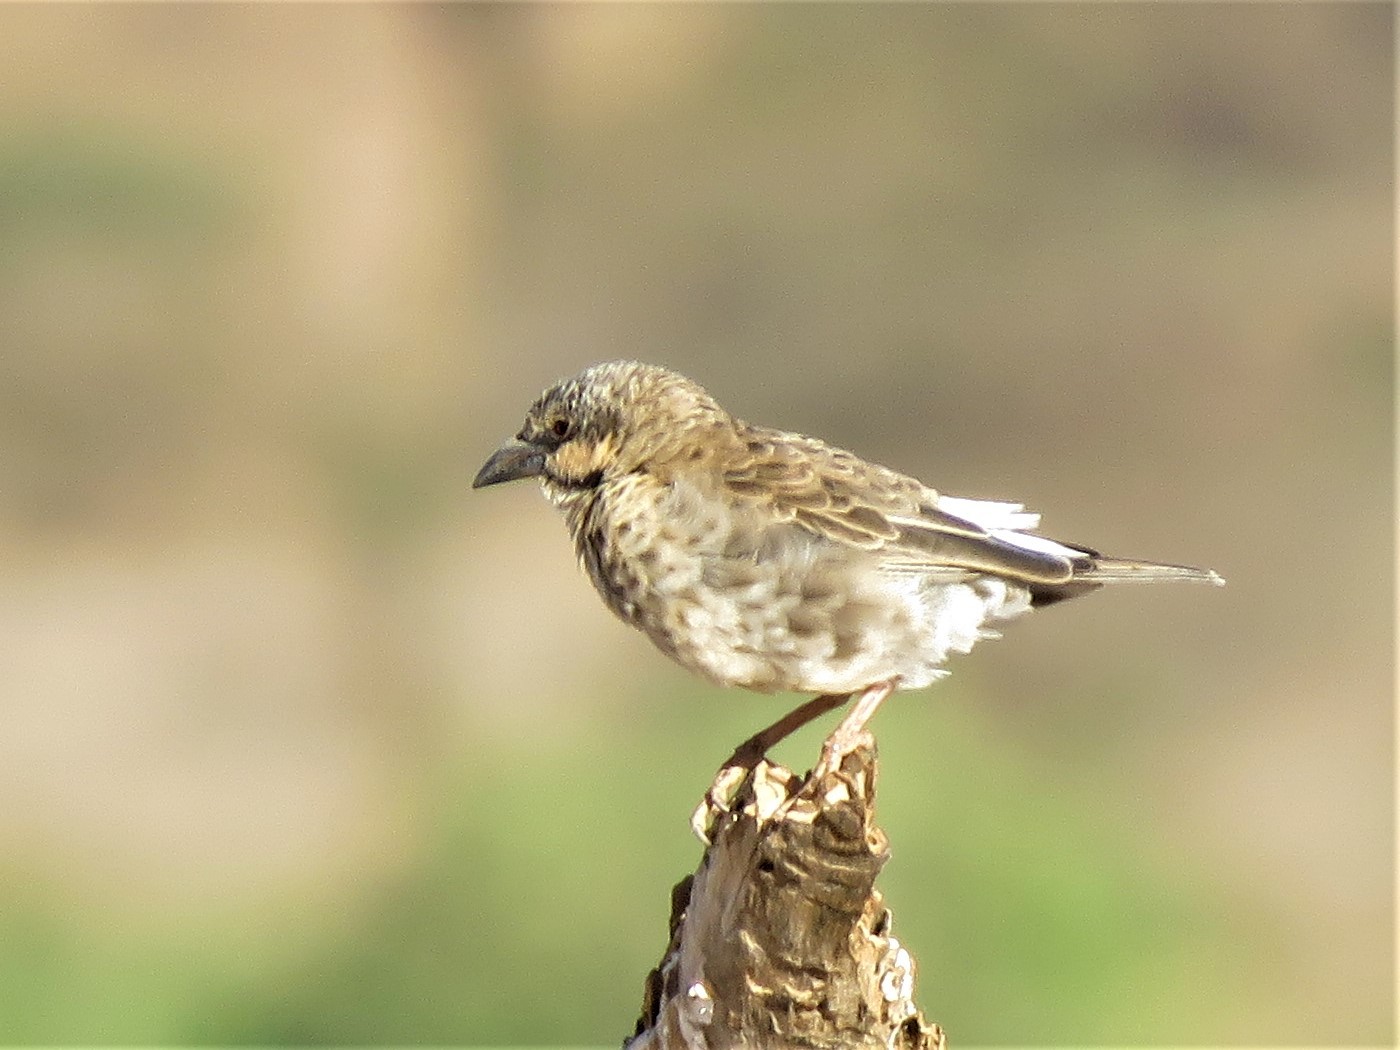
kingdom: Animalia
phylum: Chordata
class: Aves
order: Passeriformes
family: Passeridae
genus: Plocepasser
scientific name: Plocepasser donaldsoni
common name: Donaldson-smith's sparrow-weaver
